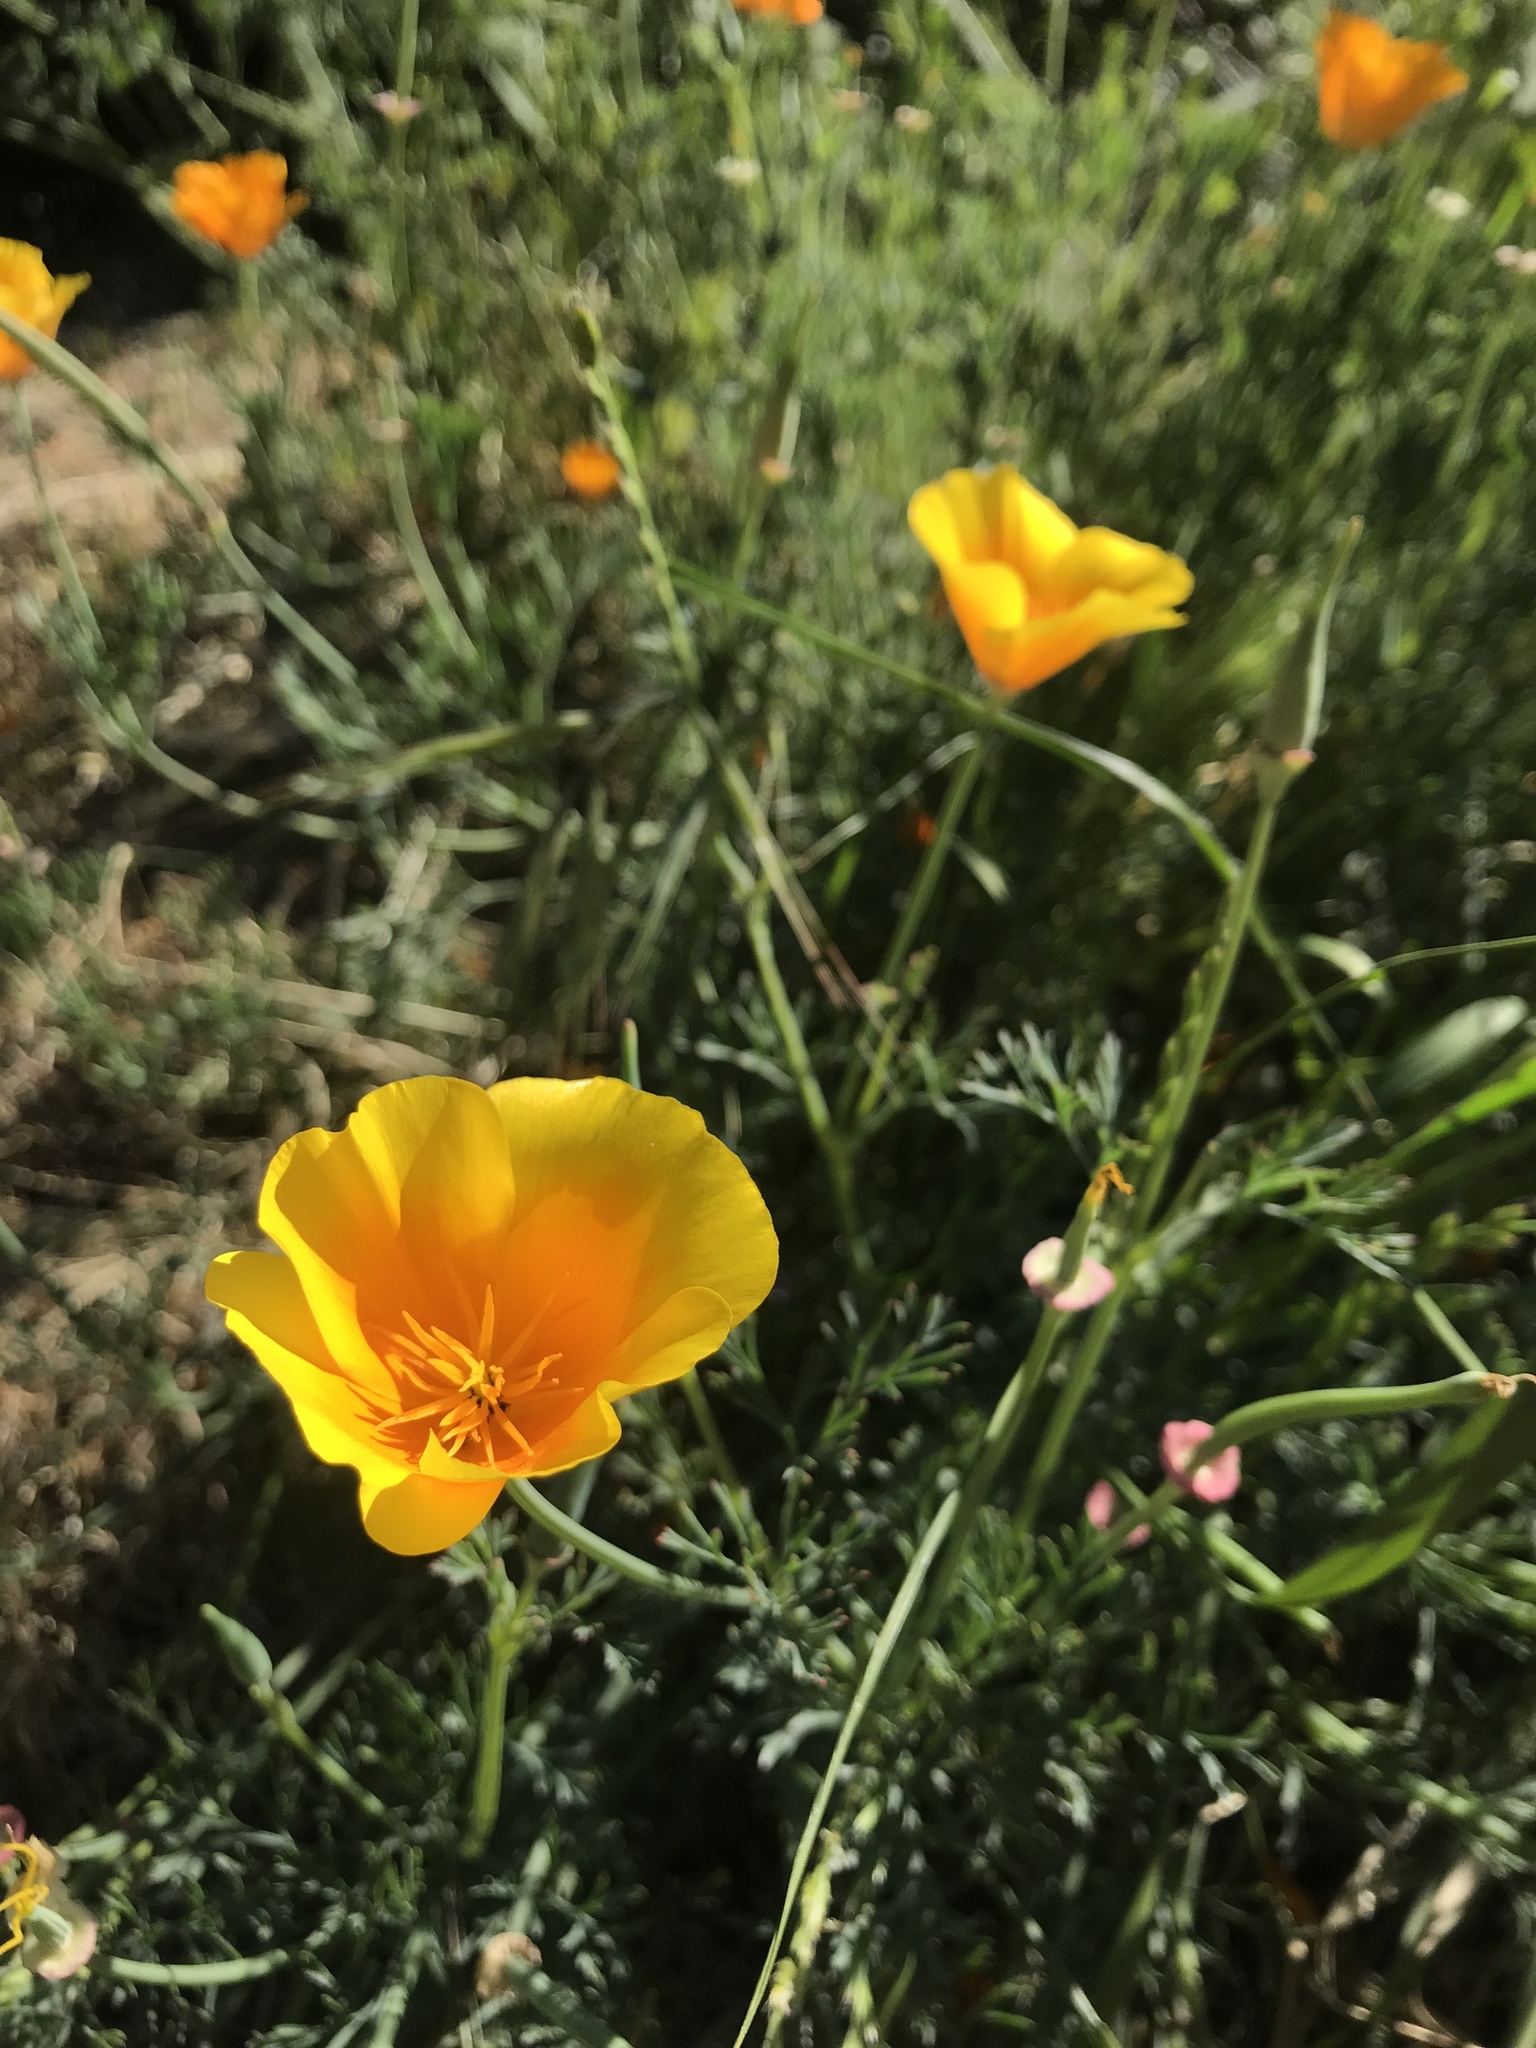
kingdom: Plantae
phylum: Tracheophyta
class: Magnoliopsida
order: Ranunculales
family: Papaveraceae
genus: Eschscholzia
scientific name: Eschscholzia californica
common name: California poppy
